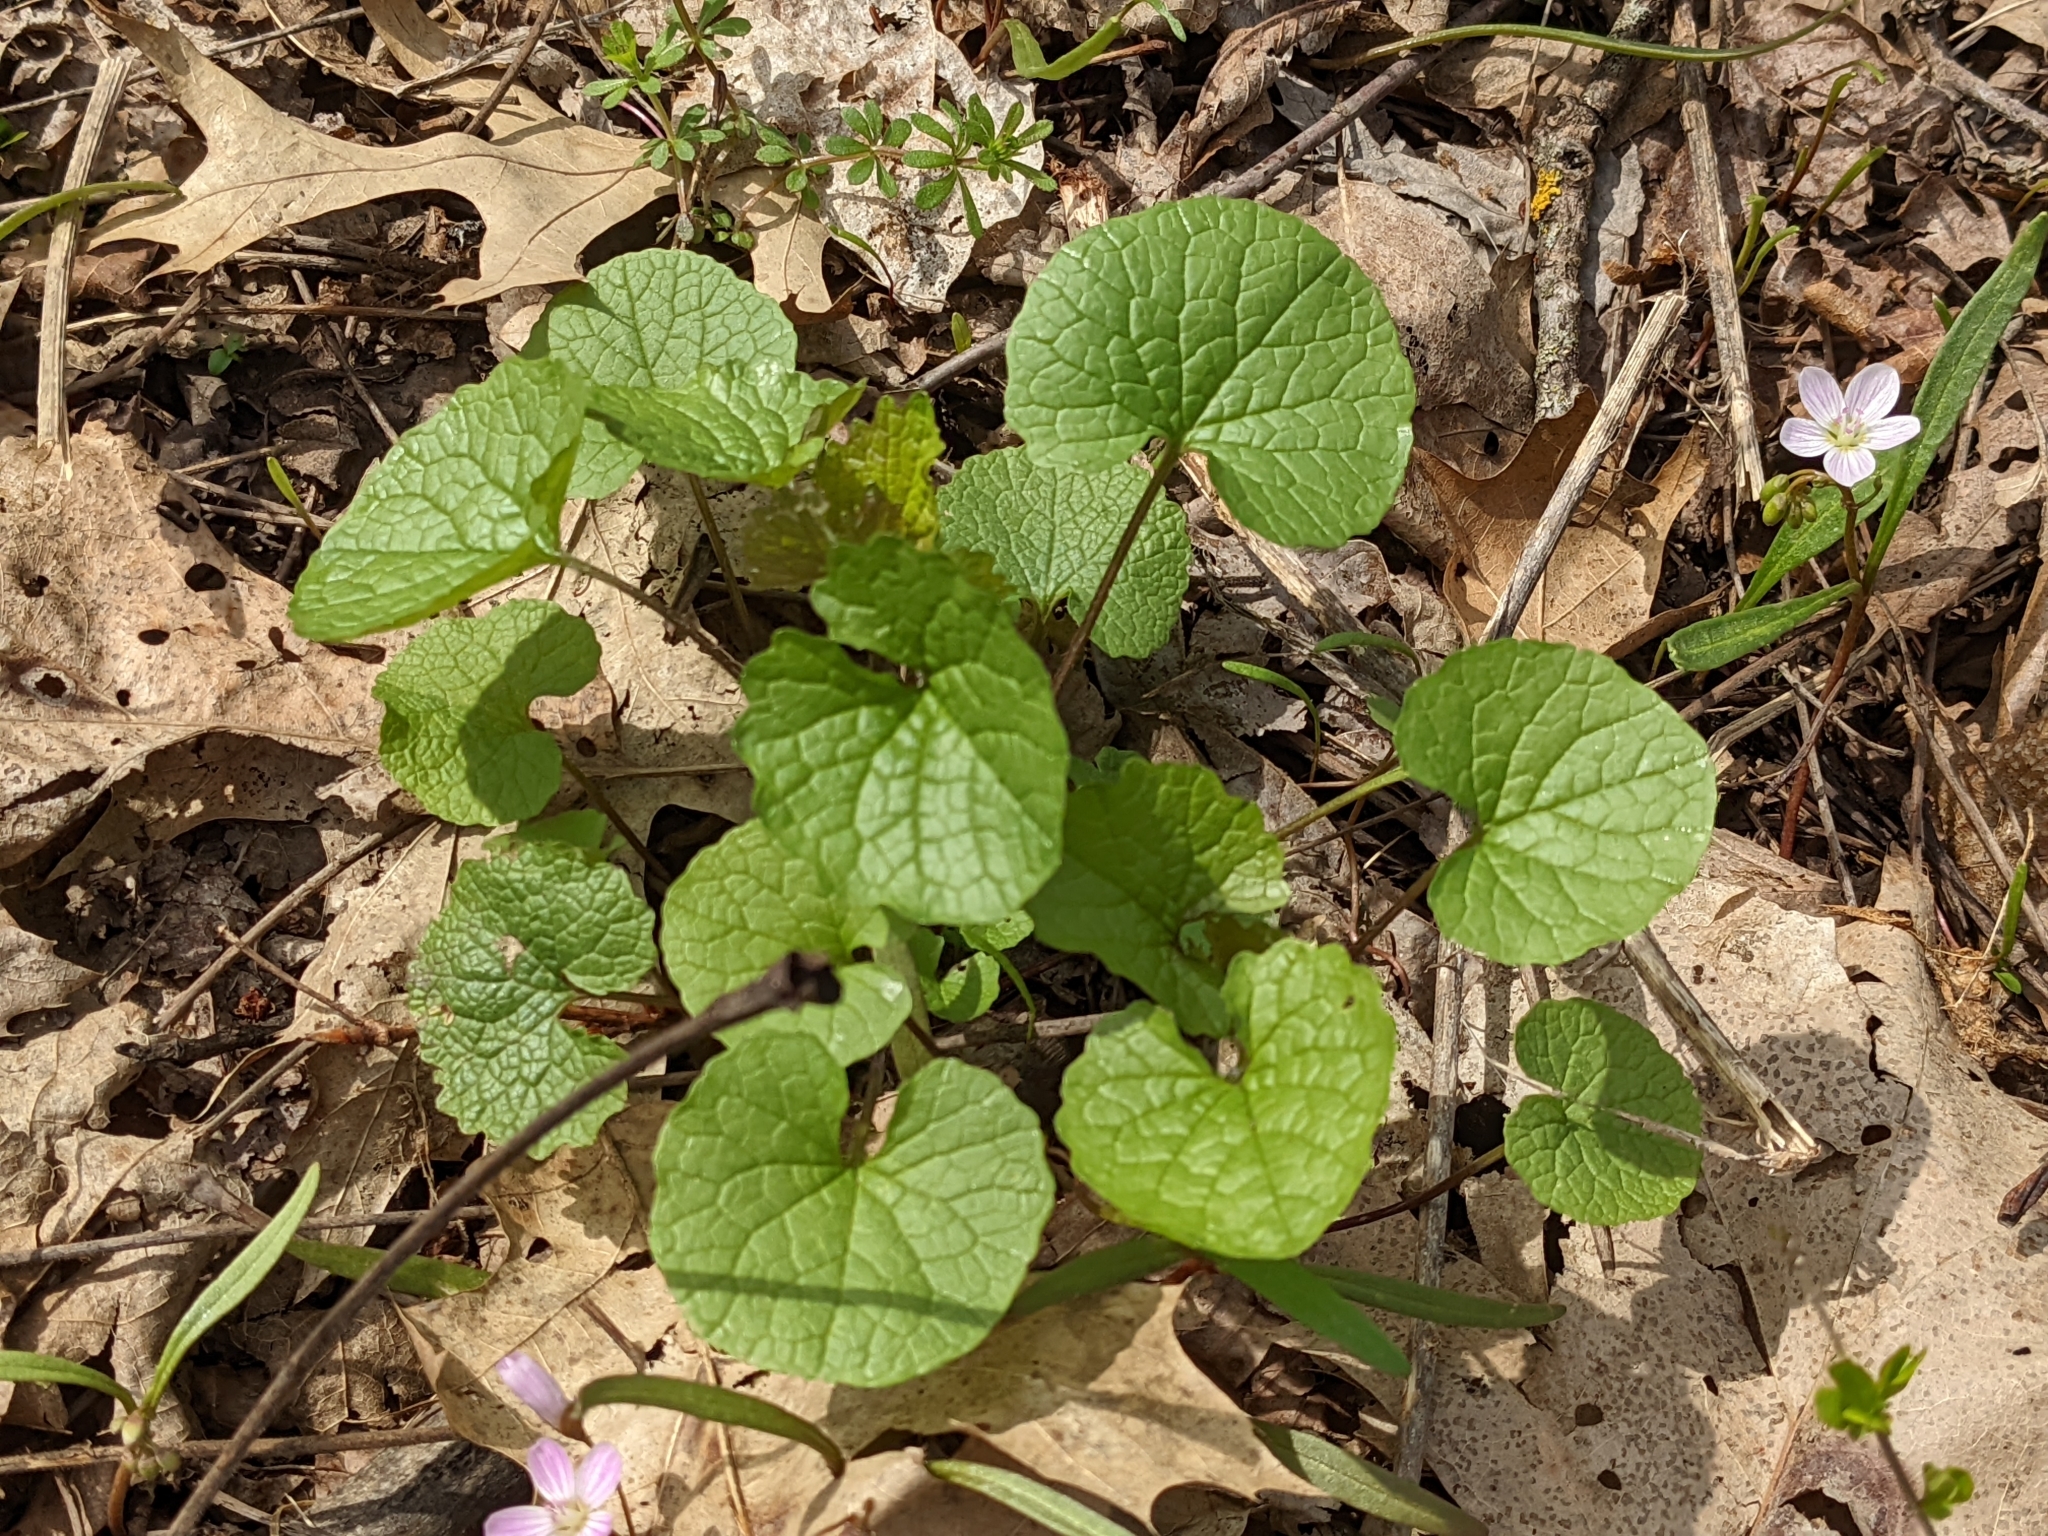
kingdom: Plantae
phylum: Tracheophyta
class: Magnoliopsida
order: Brassicales
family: Brassicaceae
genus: Alliaria
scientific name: Alliaria petiolata
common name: Garlic mustard
